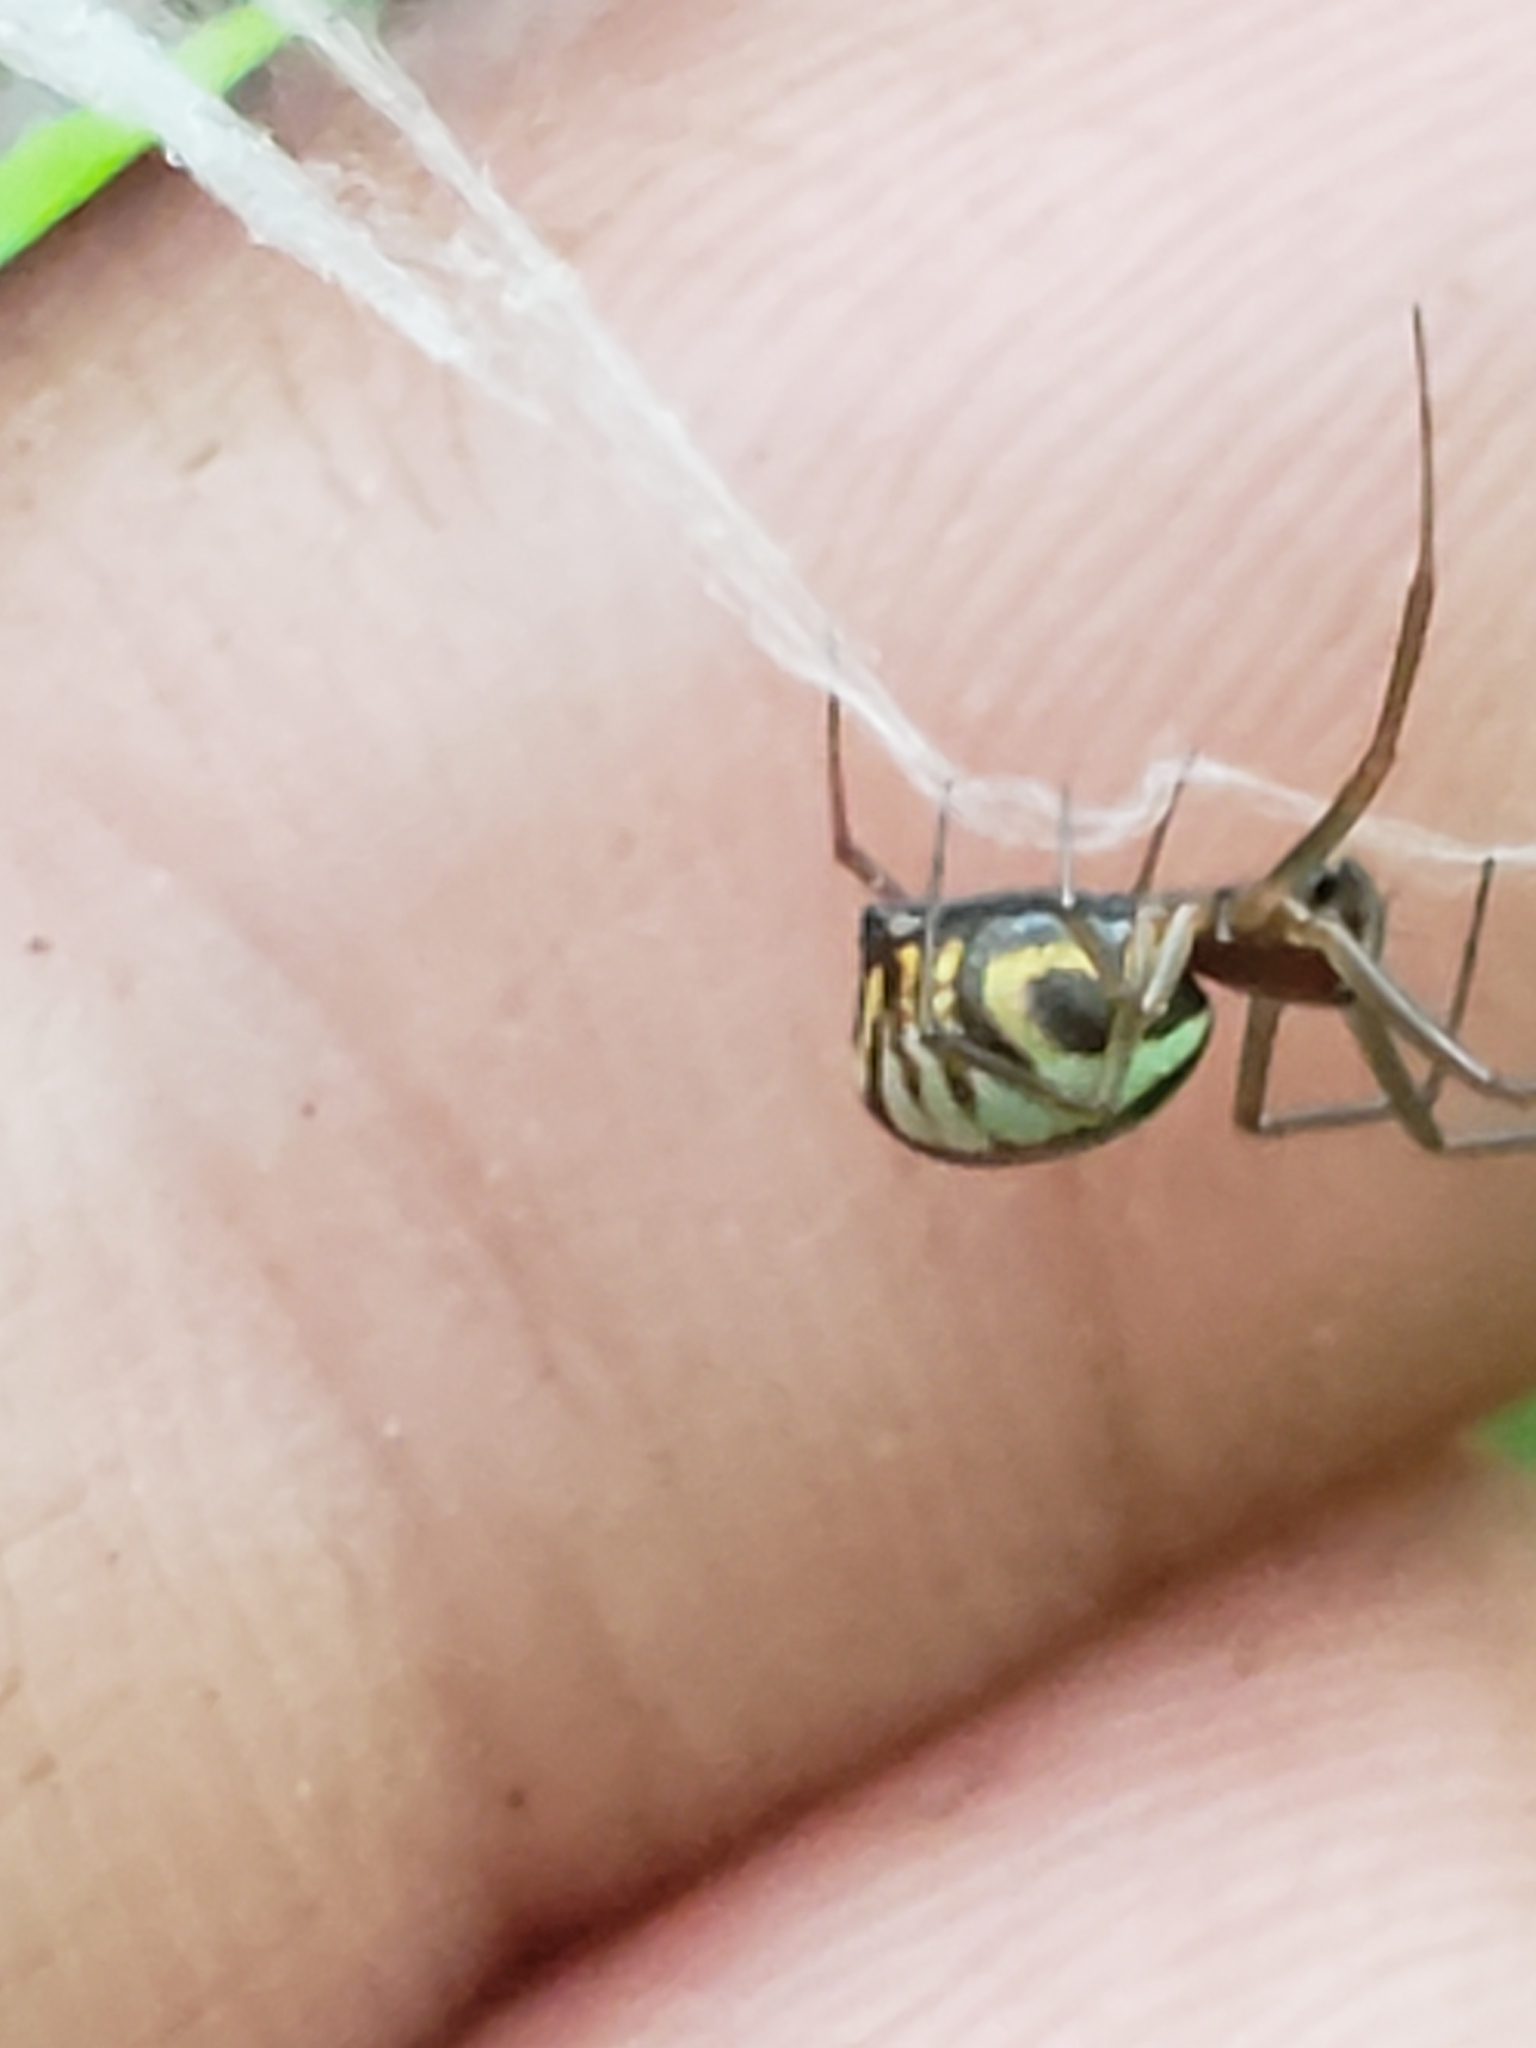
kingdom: Animalia
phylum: Arthropoda
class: Arachnida
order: Araneae
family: Linyphiidae
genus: Frontinella
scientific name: Frontinella pyramitela
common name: Bowl-and-doily spider
